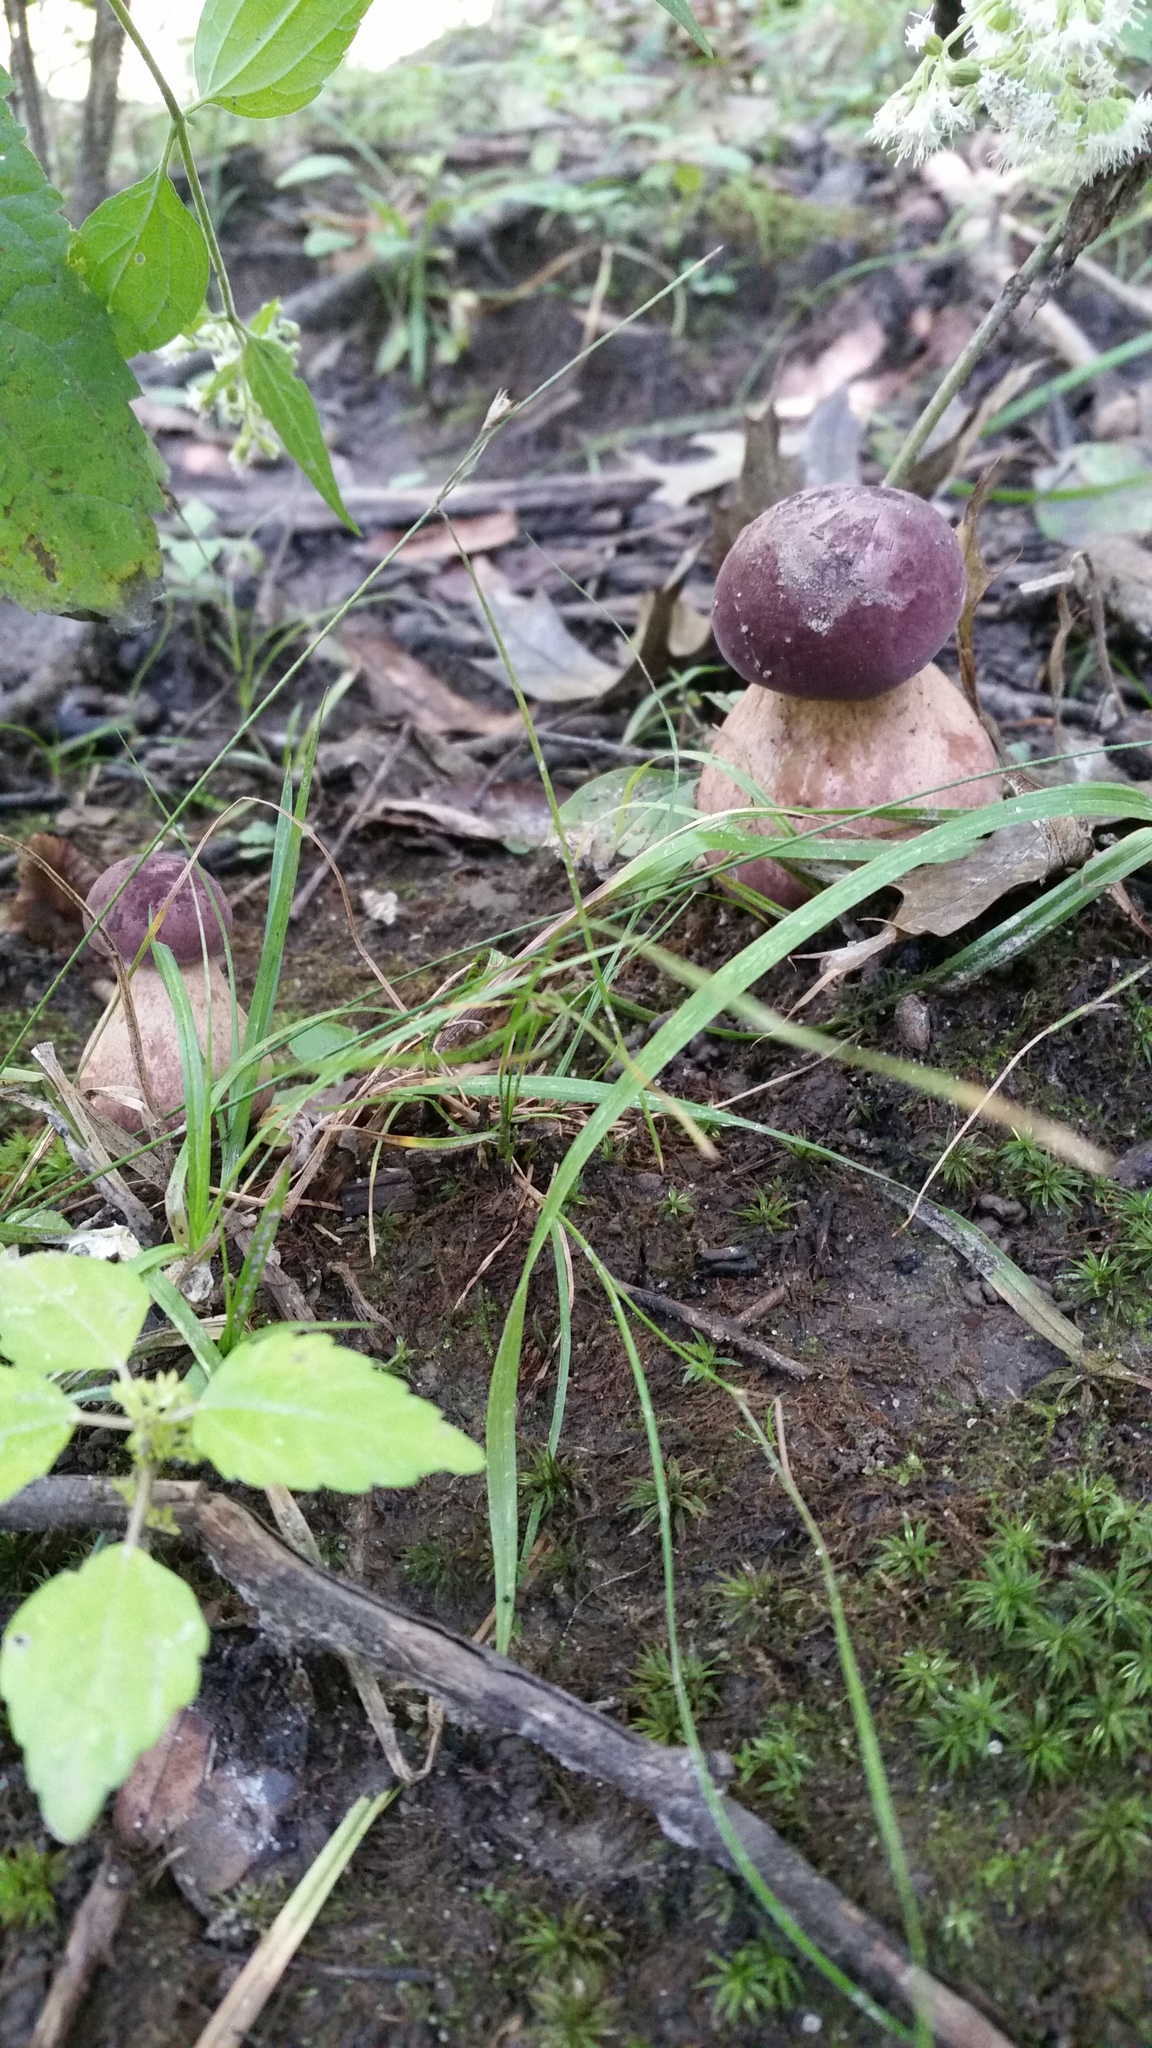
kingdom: Fungi
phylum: Basidiomycota
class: Agaricomycetes
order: Boletales
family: Boletaceae
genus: Tylopilus
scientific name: Tylopilus rubrobrunneus
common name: Reddish brown bitter bolete
